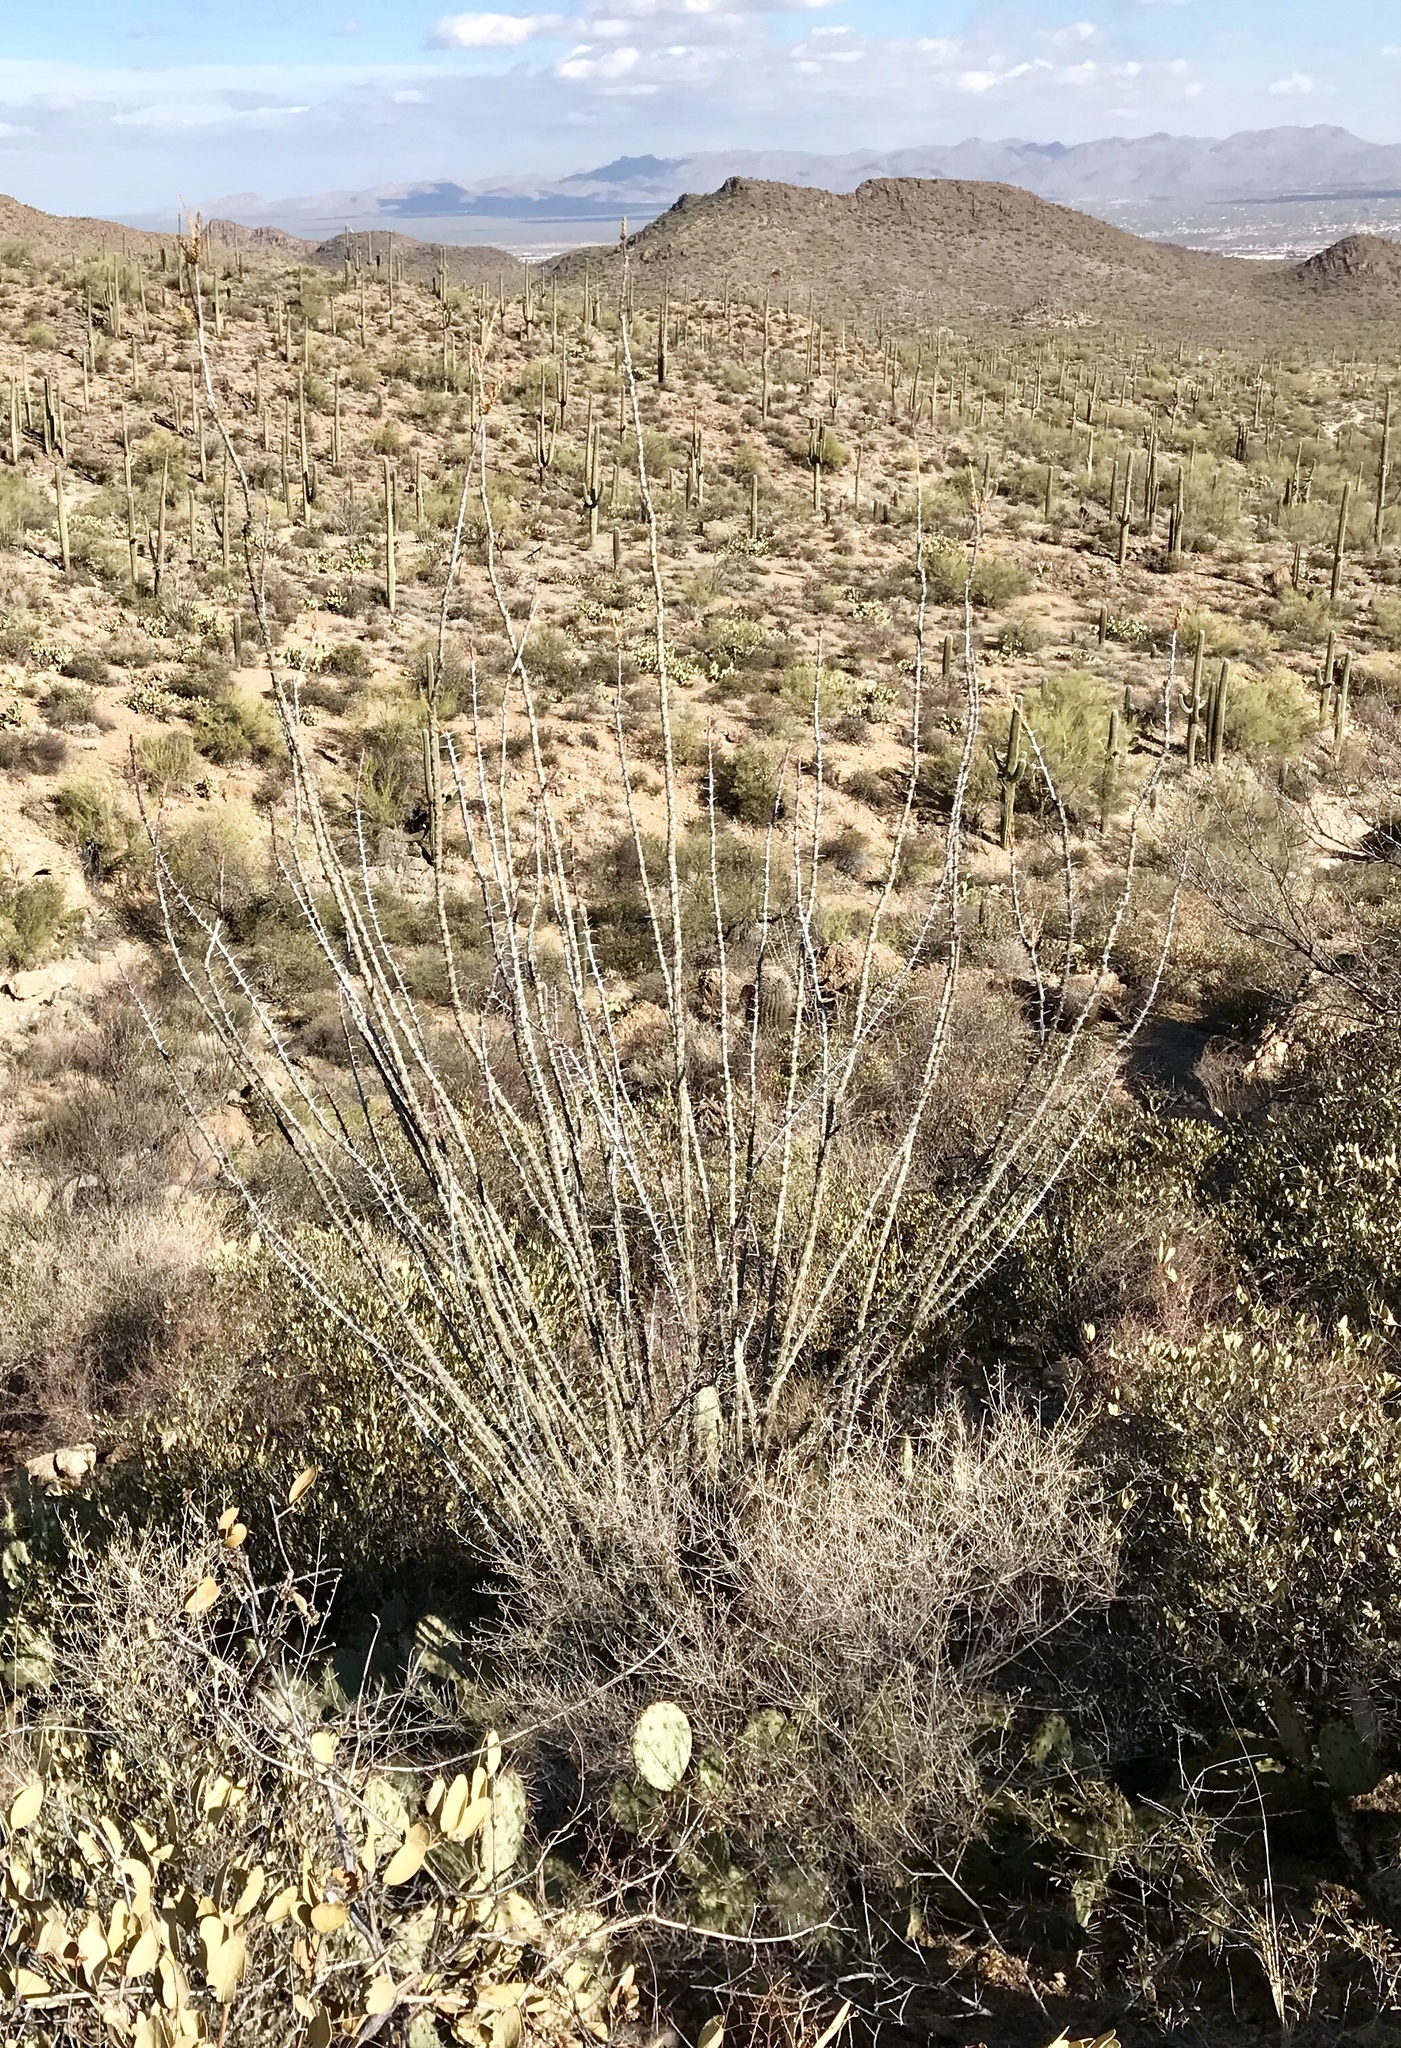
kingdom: Plantae
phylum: Tracheophyta
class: Magnoliopsida
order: Ericales
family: Fouquieriaceae
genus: Fouquieria
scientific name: Fouquieria splendens
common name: Vine-cactus
